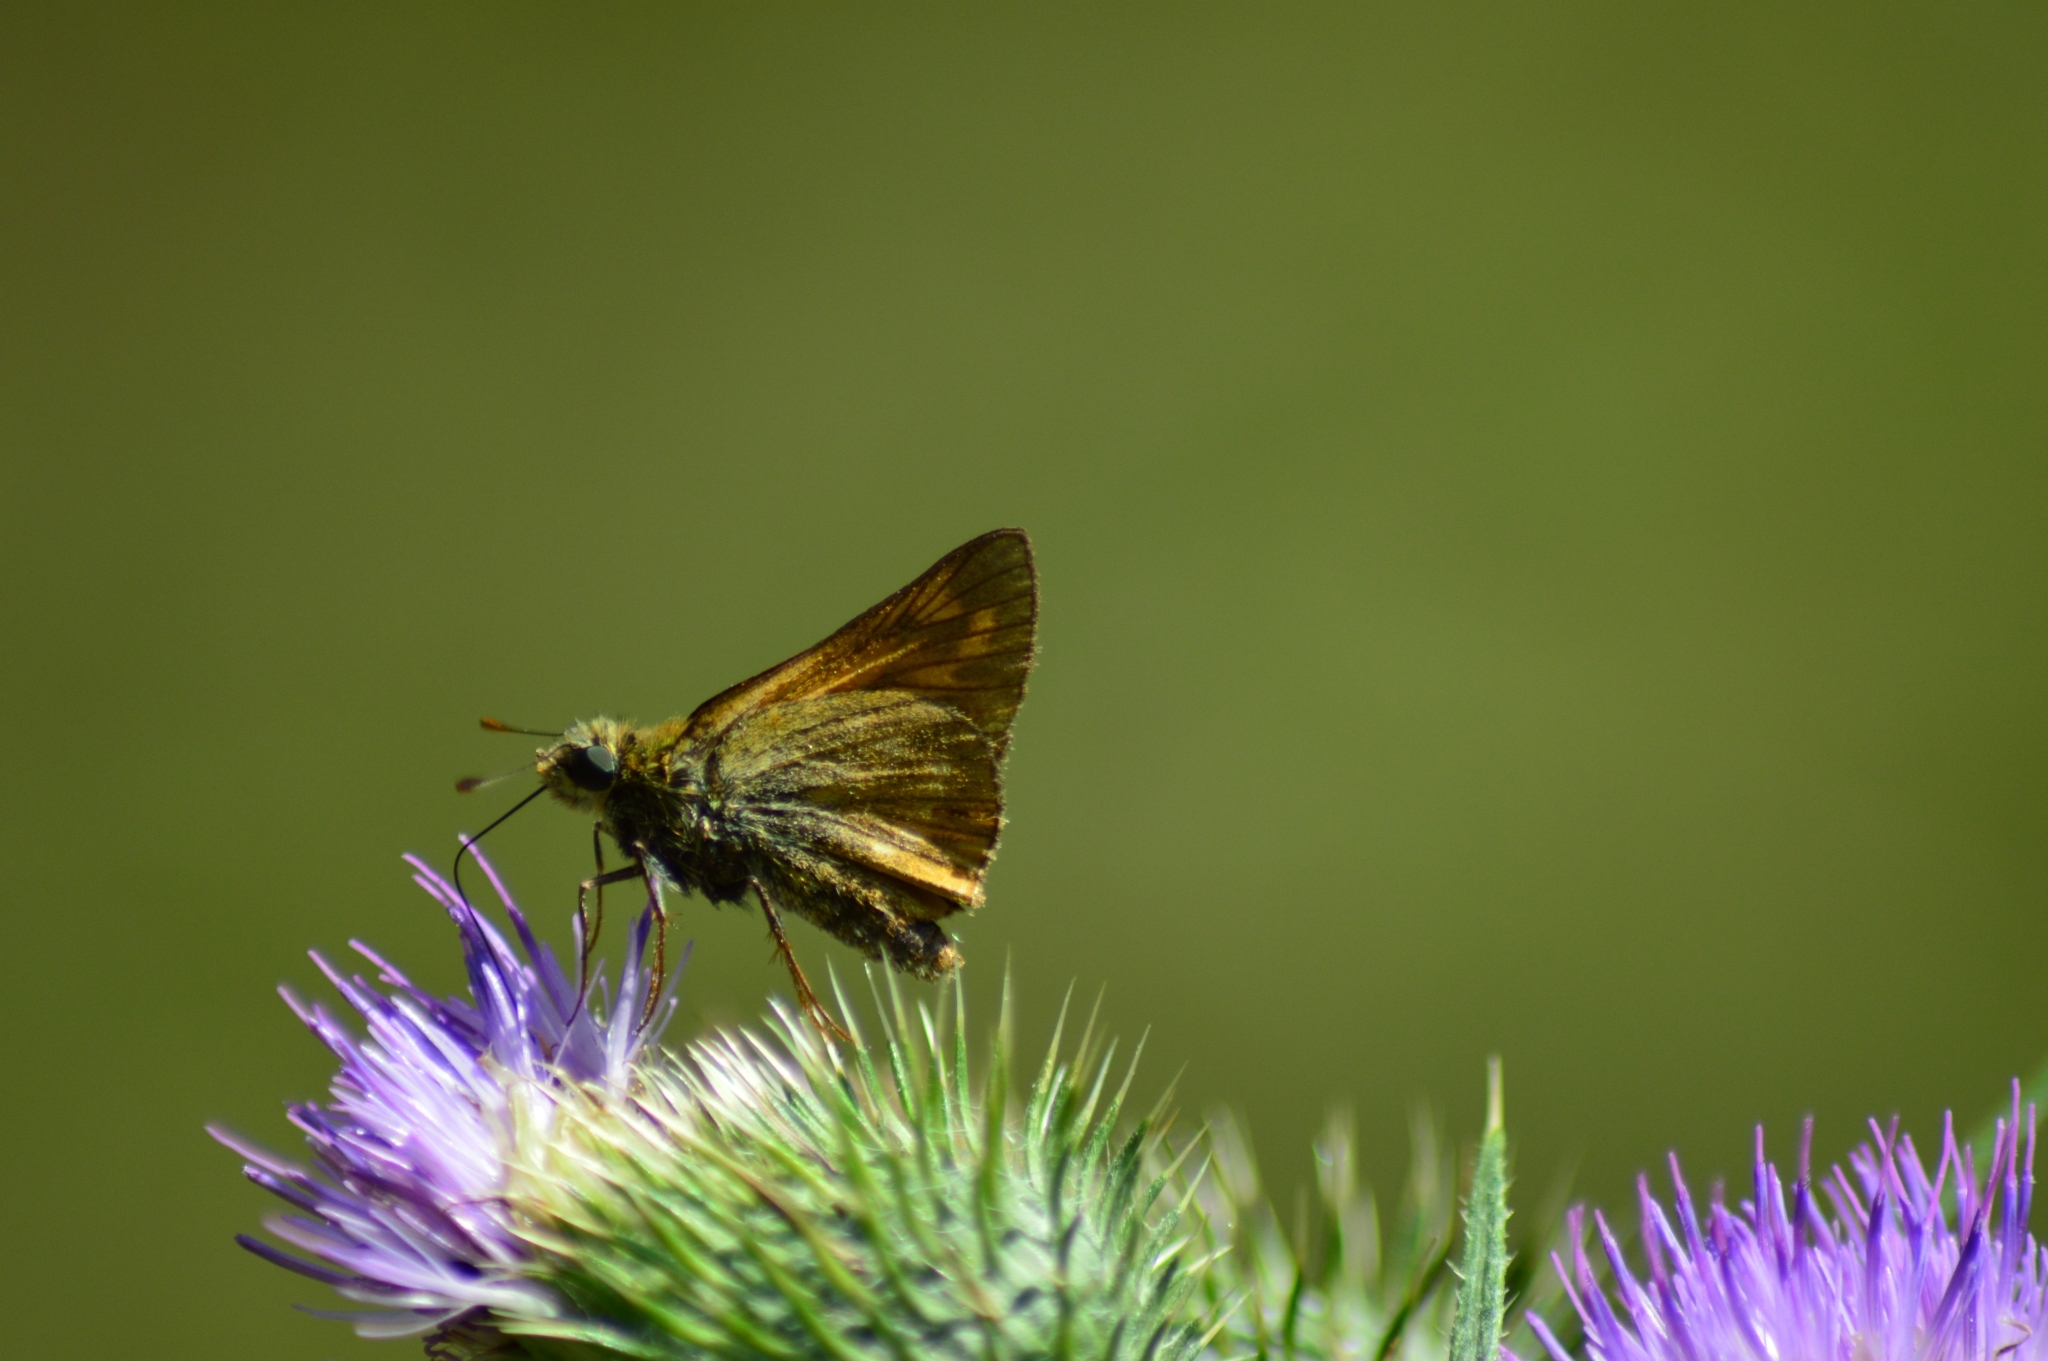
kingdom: Animalia
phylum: Arthropoda
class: Insecta
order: Lepidoptera
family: Hesperiidae
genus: Ochlodes
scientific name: Ochlodes venata
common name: Large skipper
